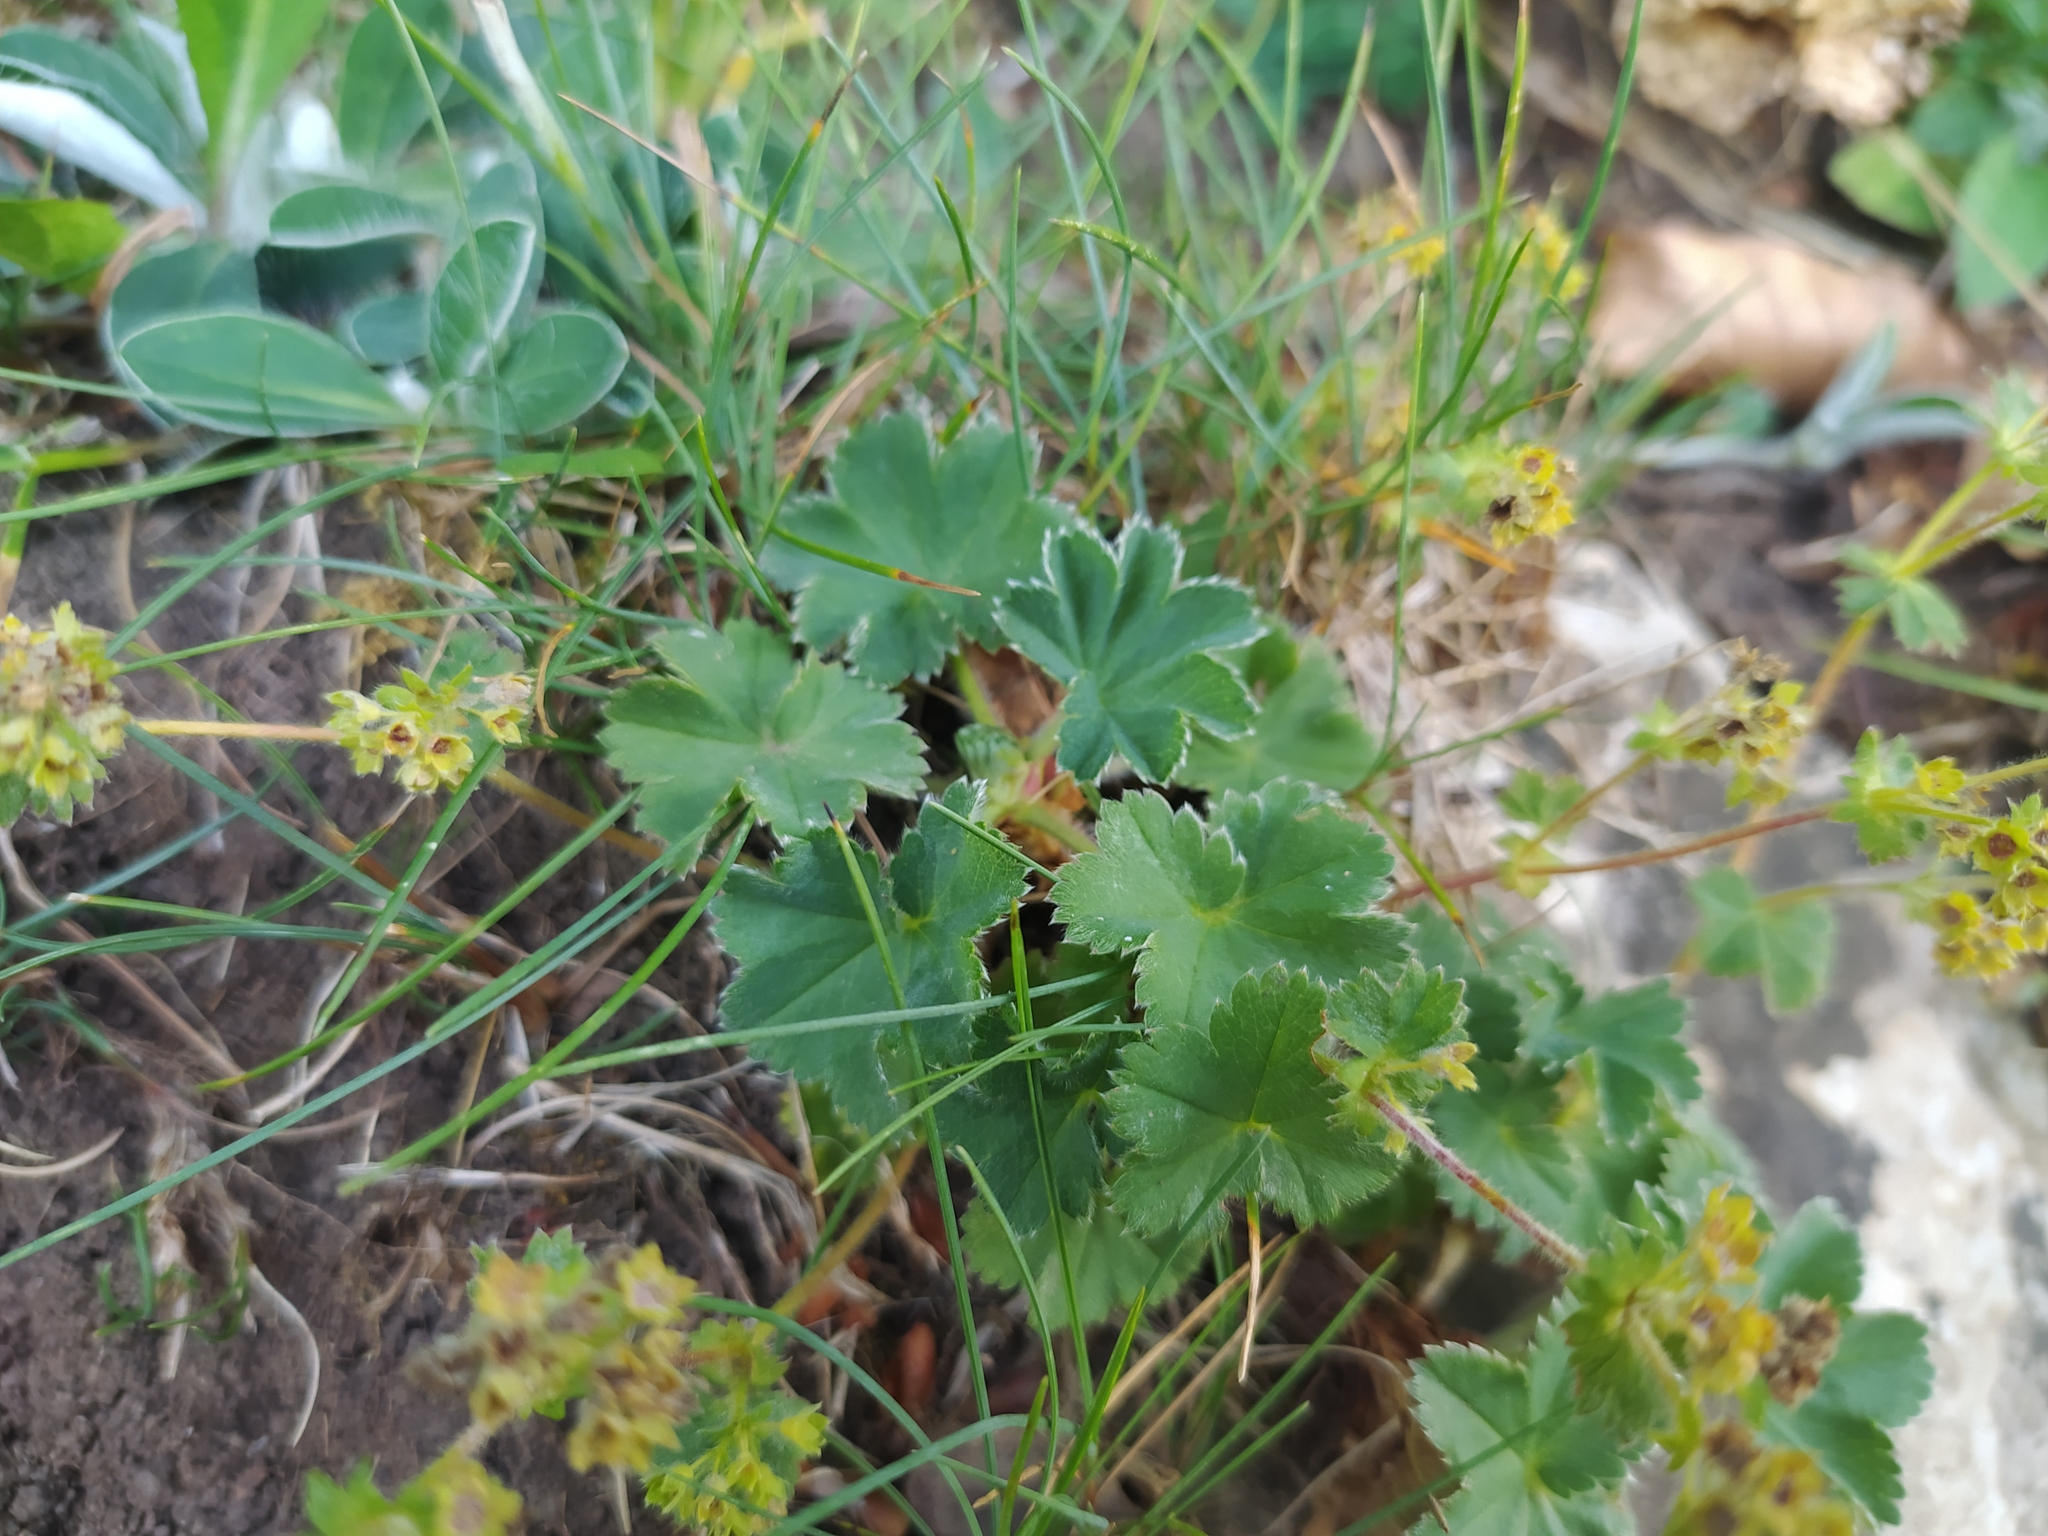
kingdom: Plantae
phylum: Tracheophyta
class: Magnoliopsida
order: Rosales
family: Rosaceae
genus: Alchemilla
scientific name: Alchemilla glaucescens
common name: Silky lady's mantle
